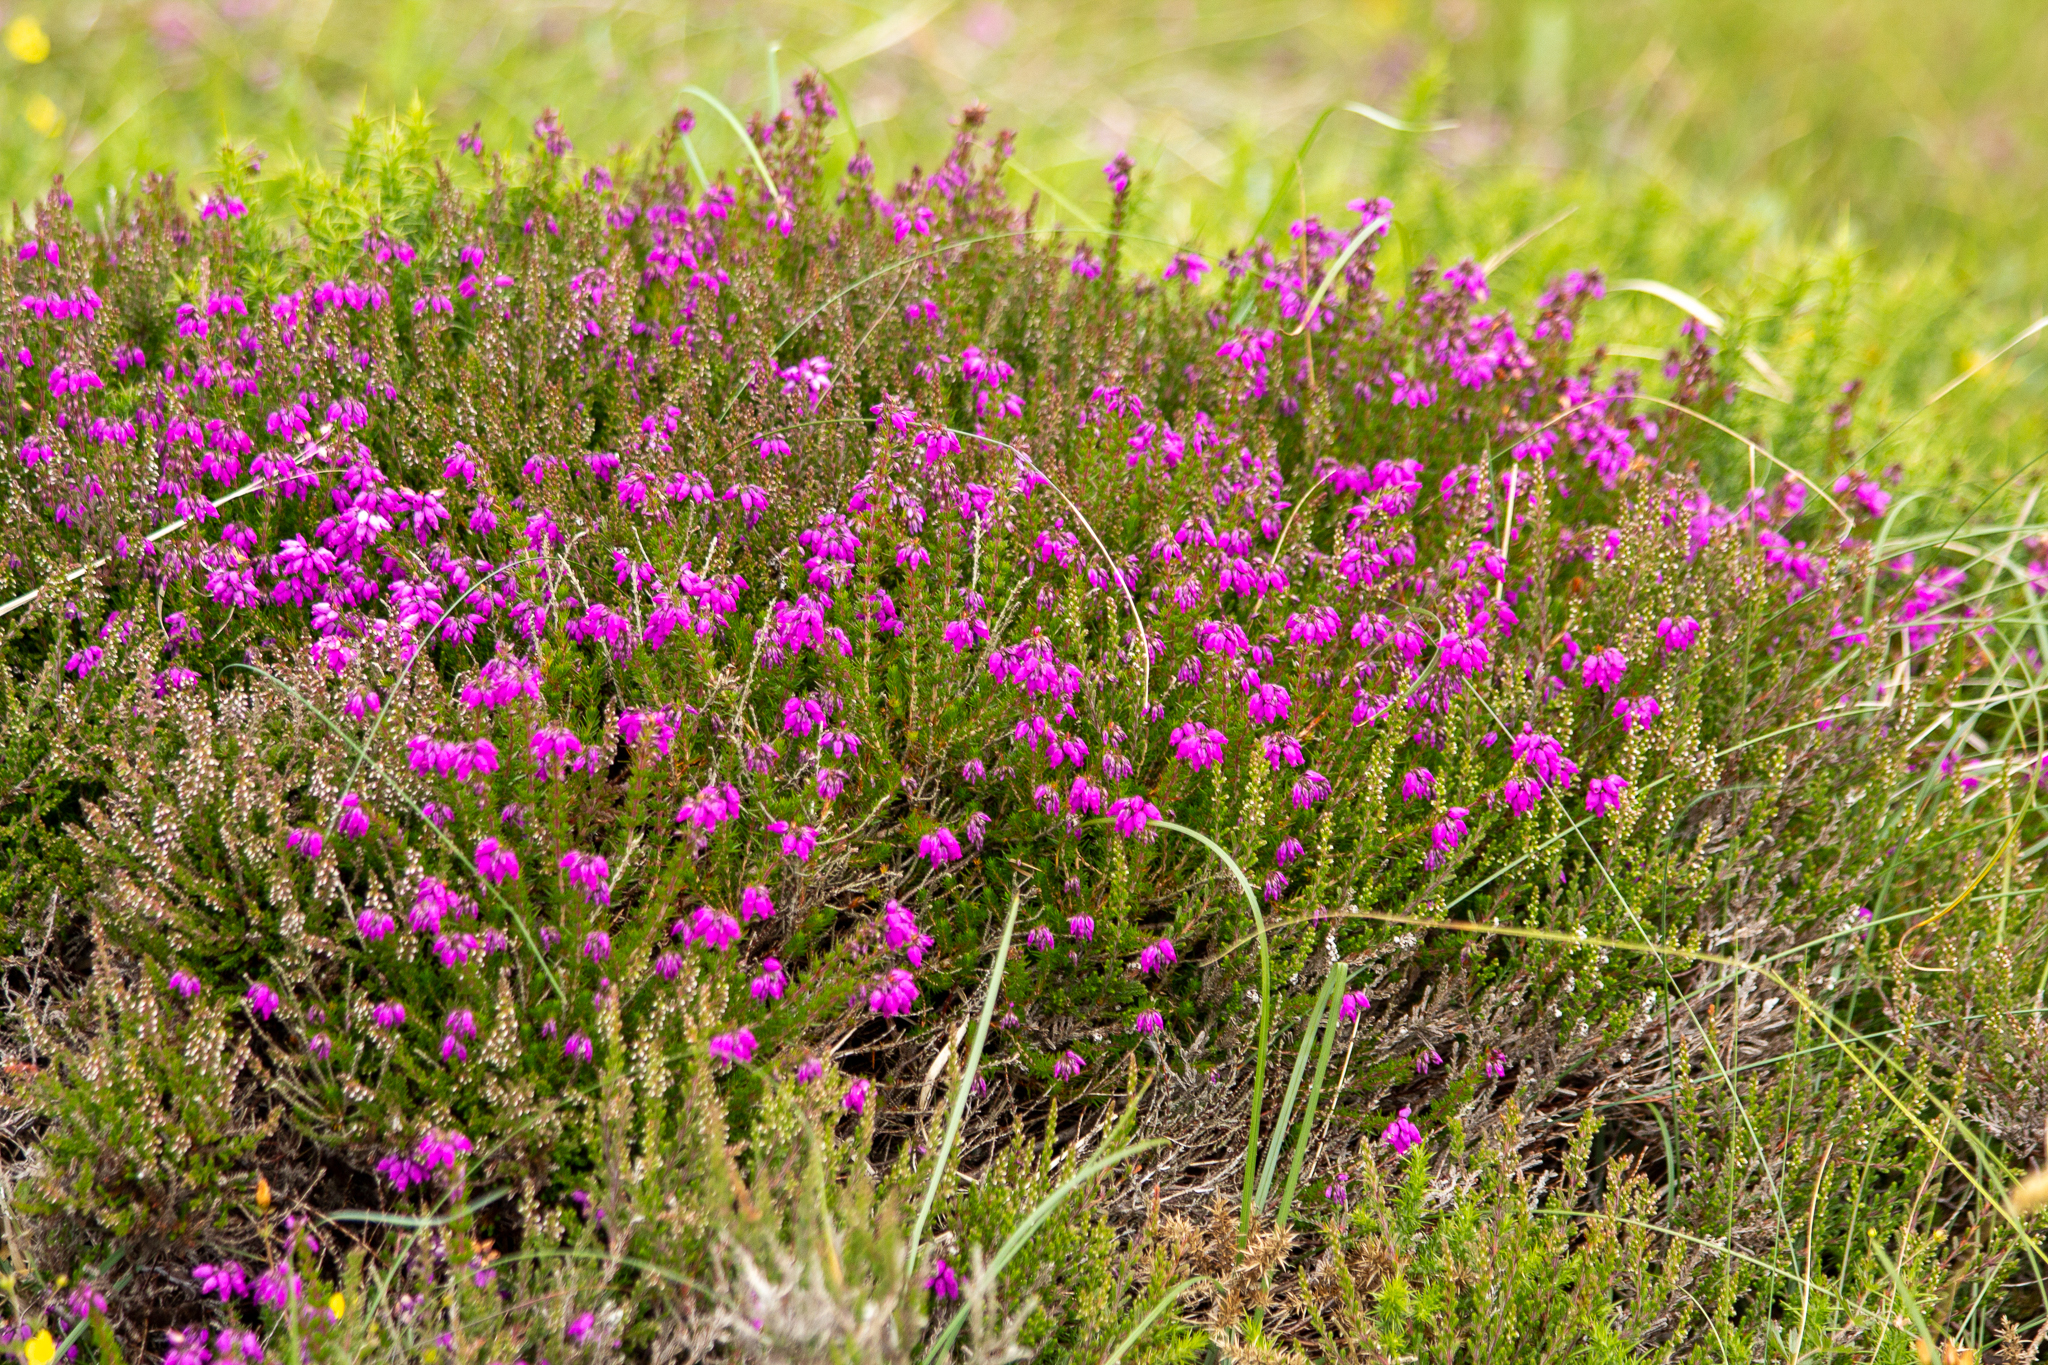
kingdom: Plantae
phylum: Tracheophyta
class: Magnoliopsida
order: Ericales
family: Ericaceae
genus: Erica
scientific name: Erica cinerea
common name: Bell heather
